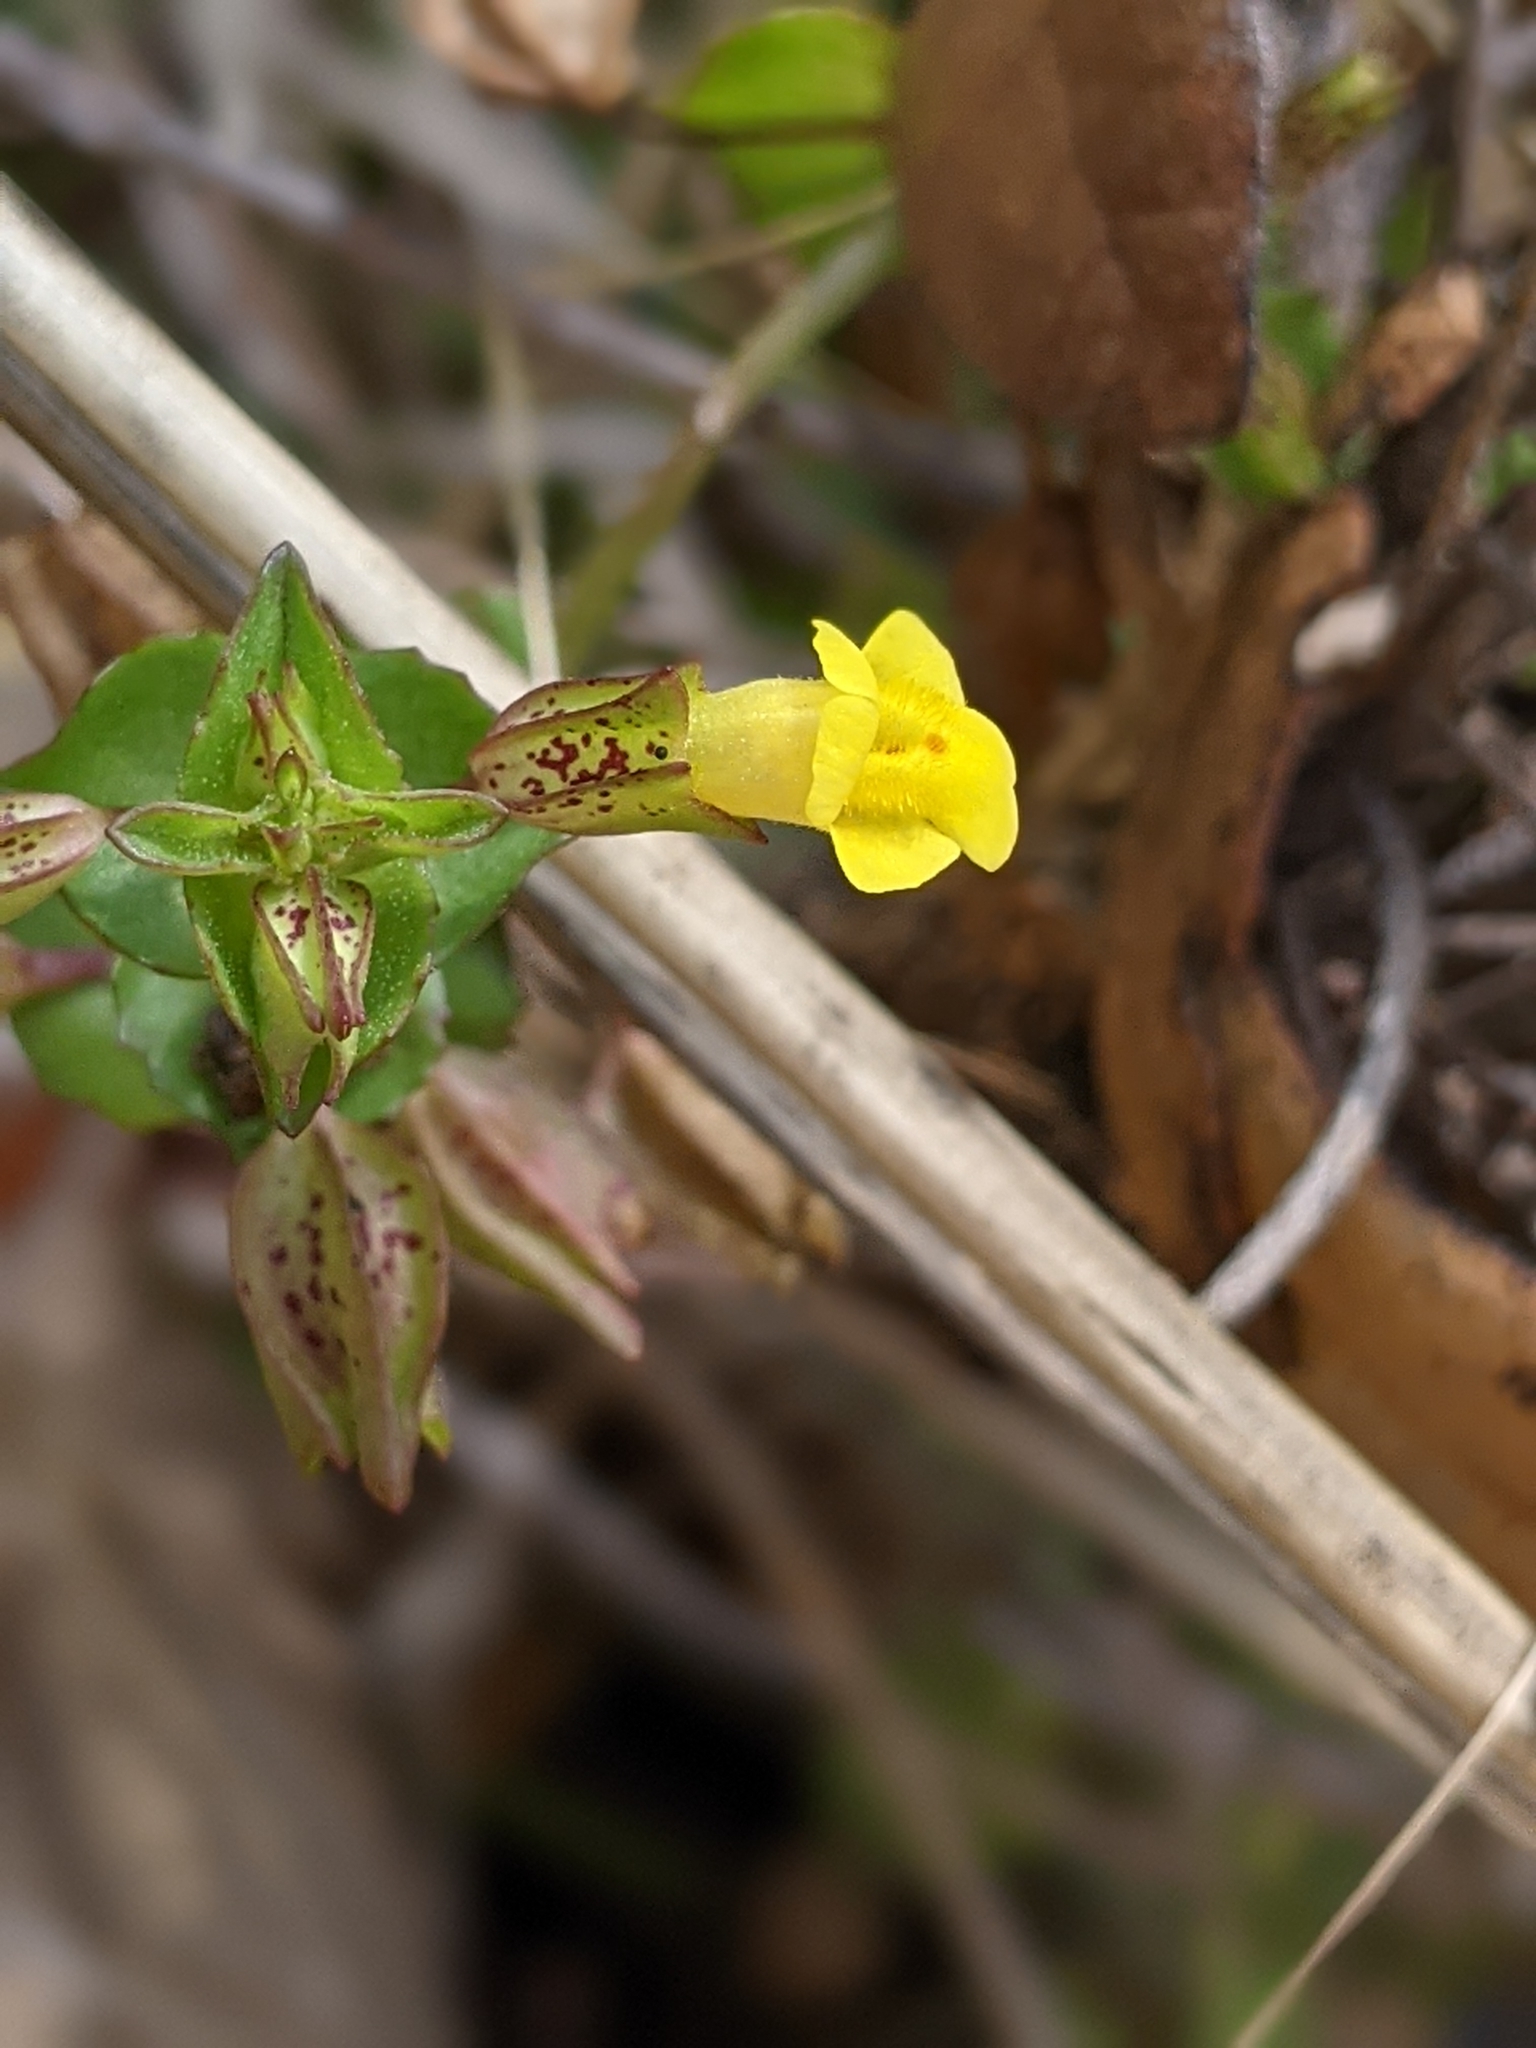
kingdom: Plantae
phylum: Tracheophyta
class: Magnoliopsida
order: Lamiales
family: Phrymaceae
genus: Erythranthe
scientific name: Erythranthe inamoena
